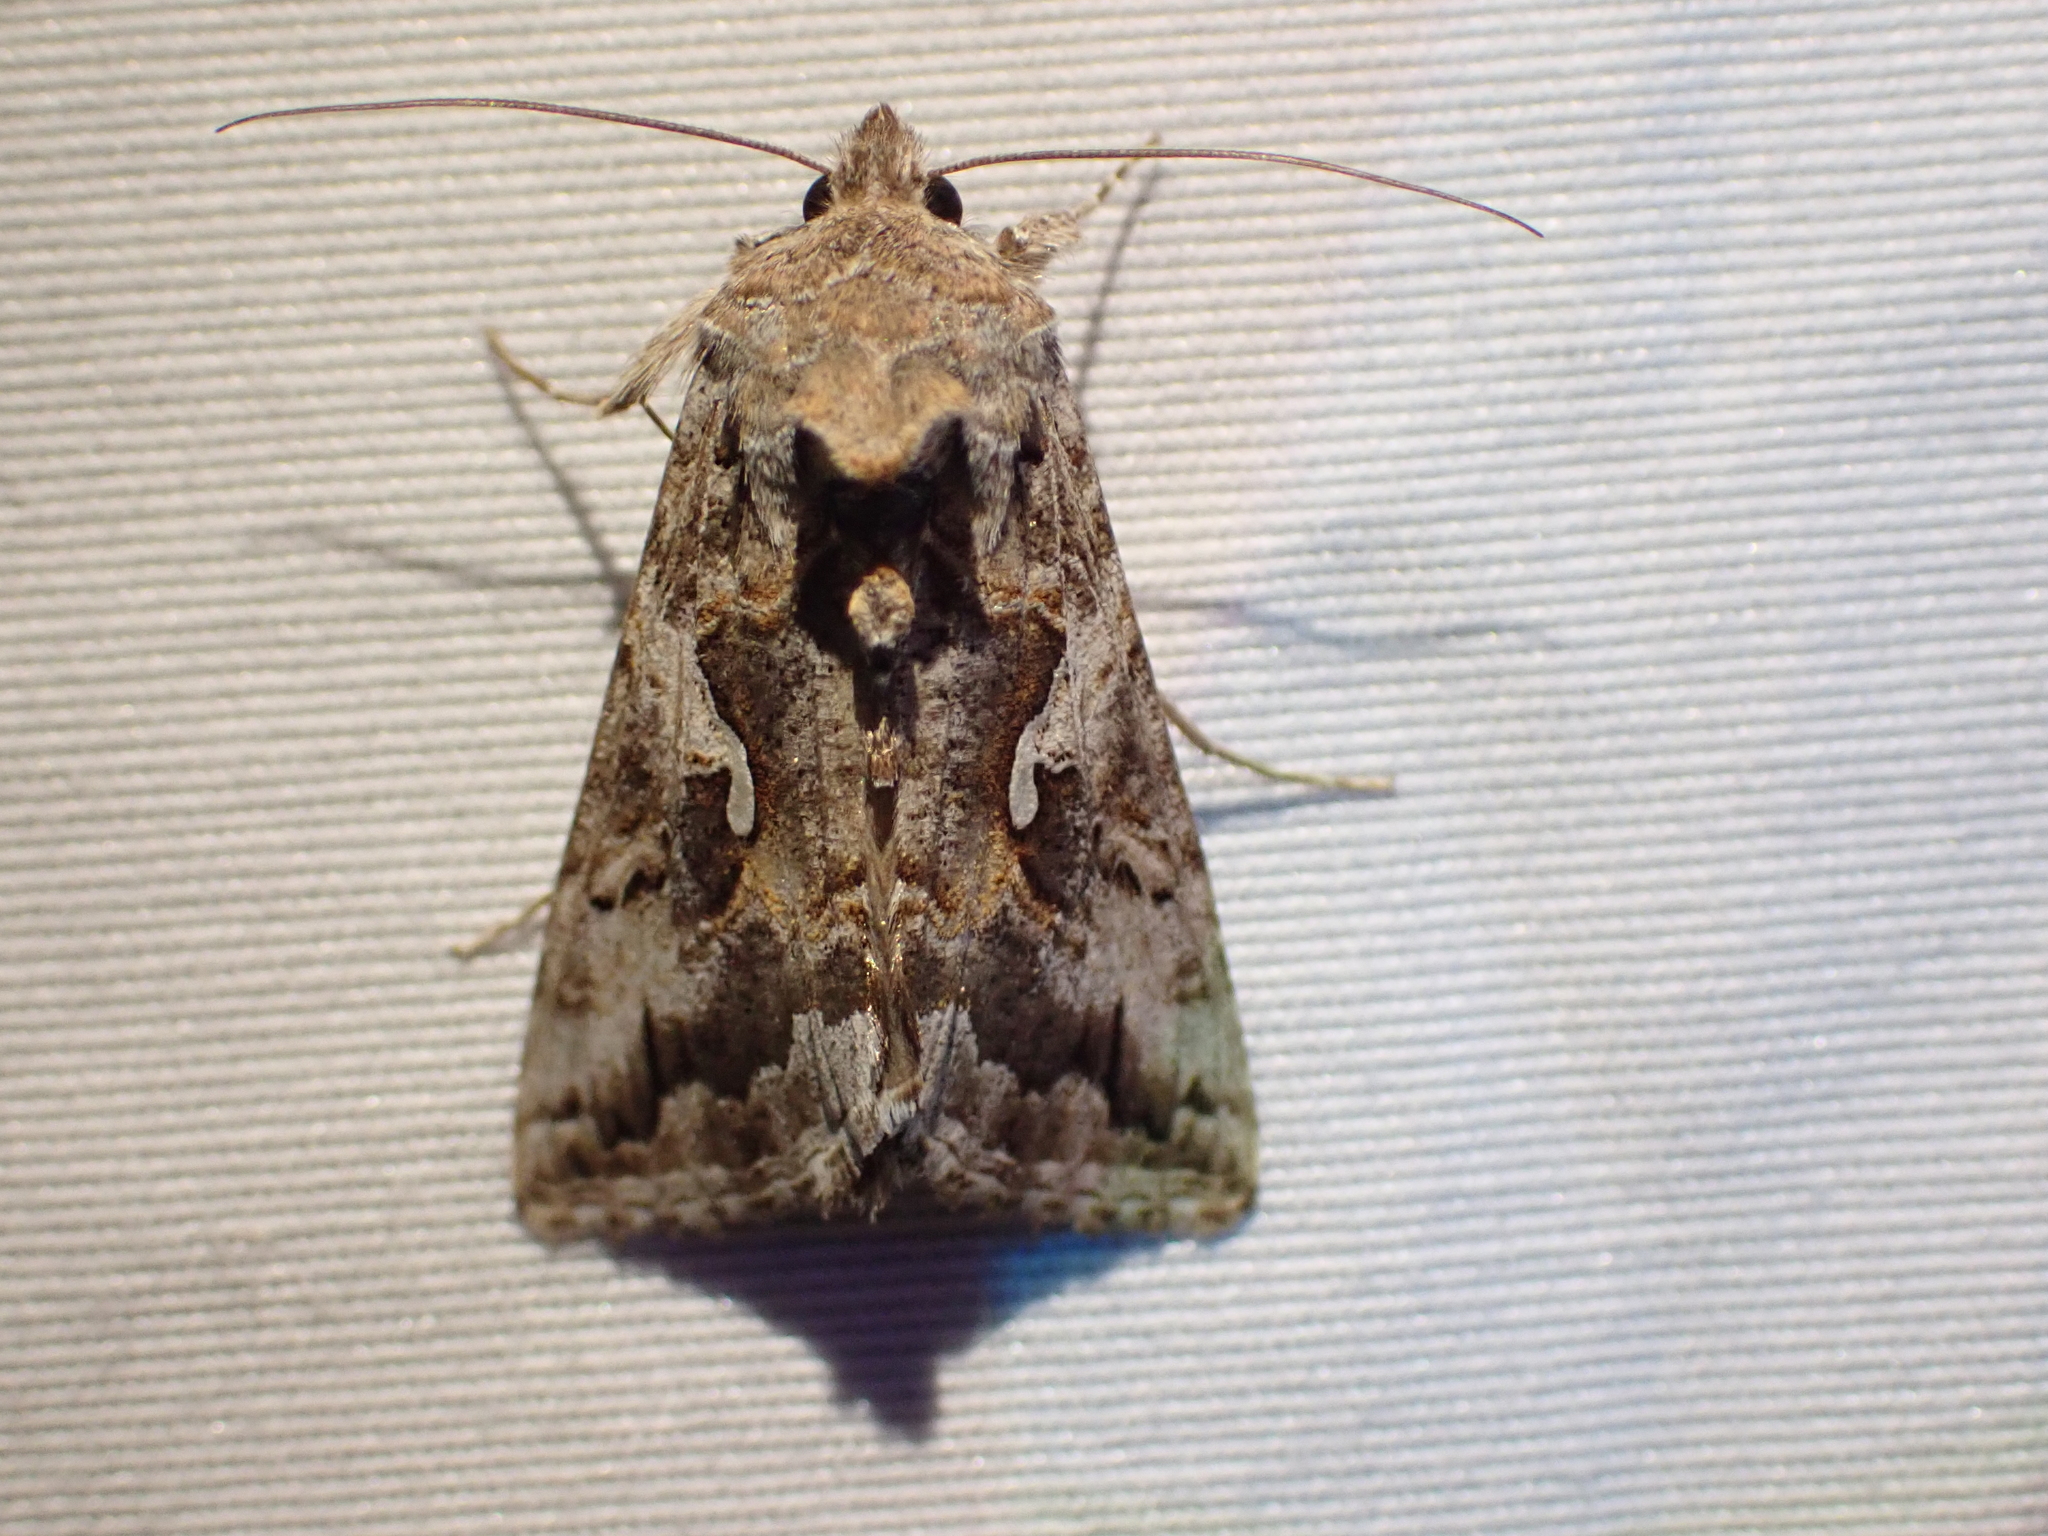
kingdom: Animalia
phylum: Arthropoda
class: Insecta
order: Lepidoptera
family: Noctuidae
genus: Autographa
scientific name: Autographa californica
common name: Alfalfa looper
